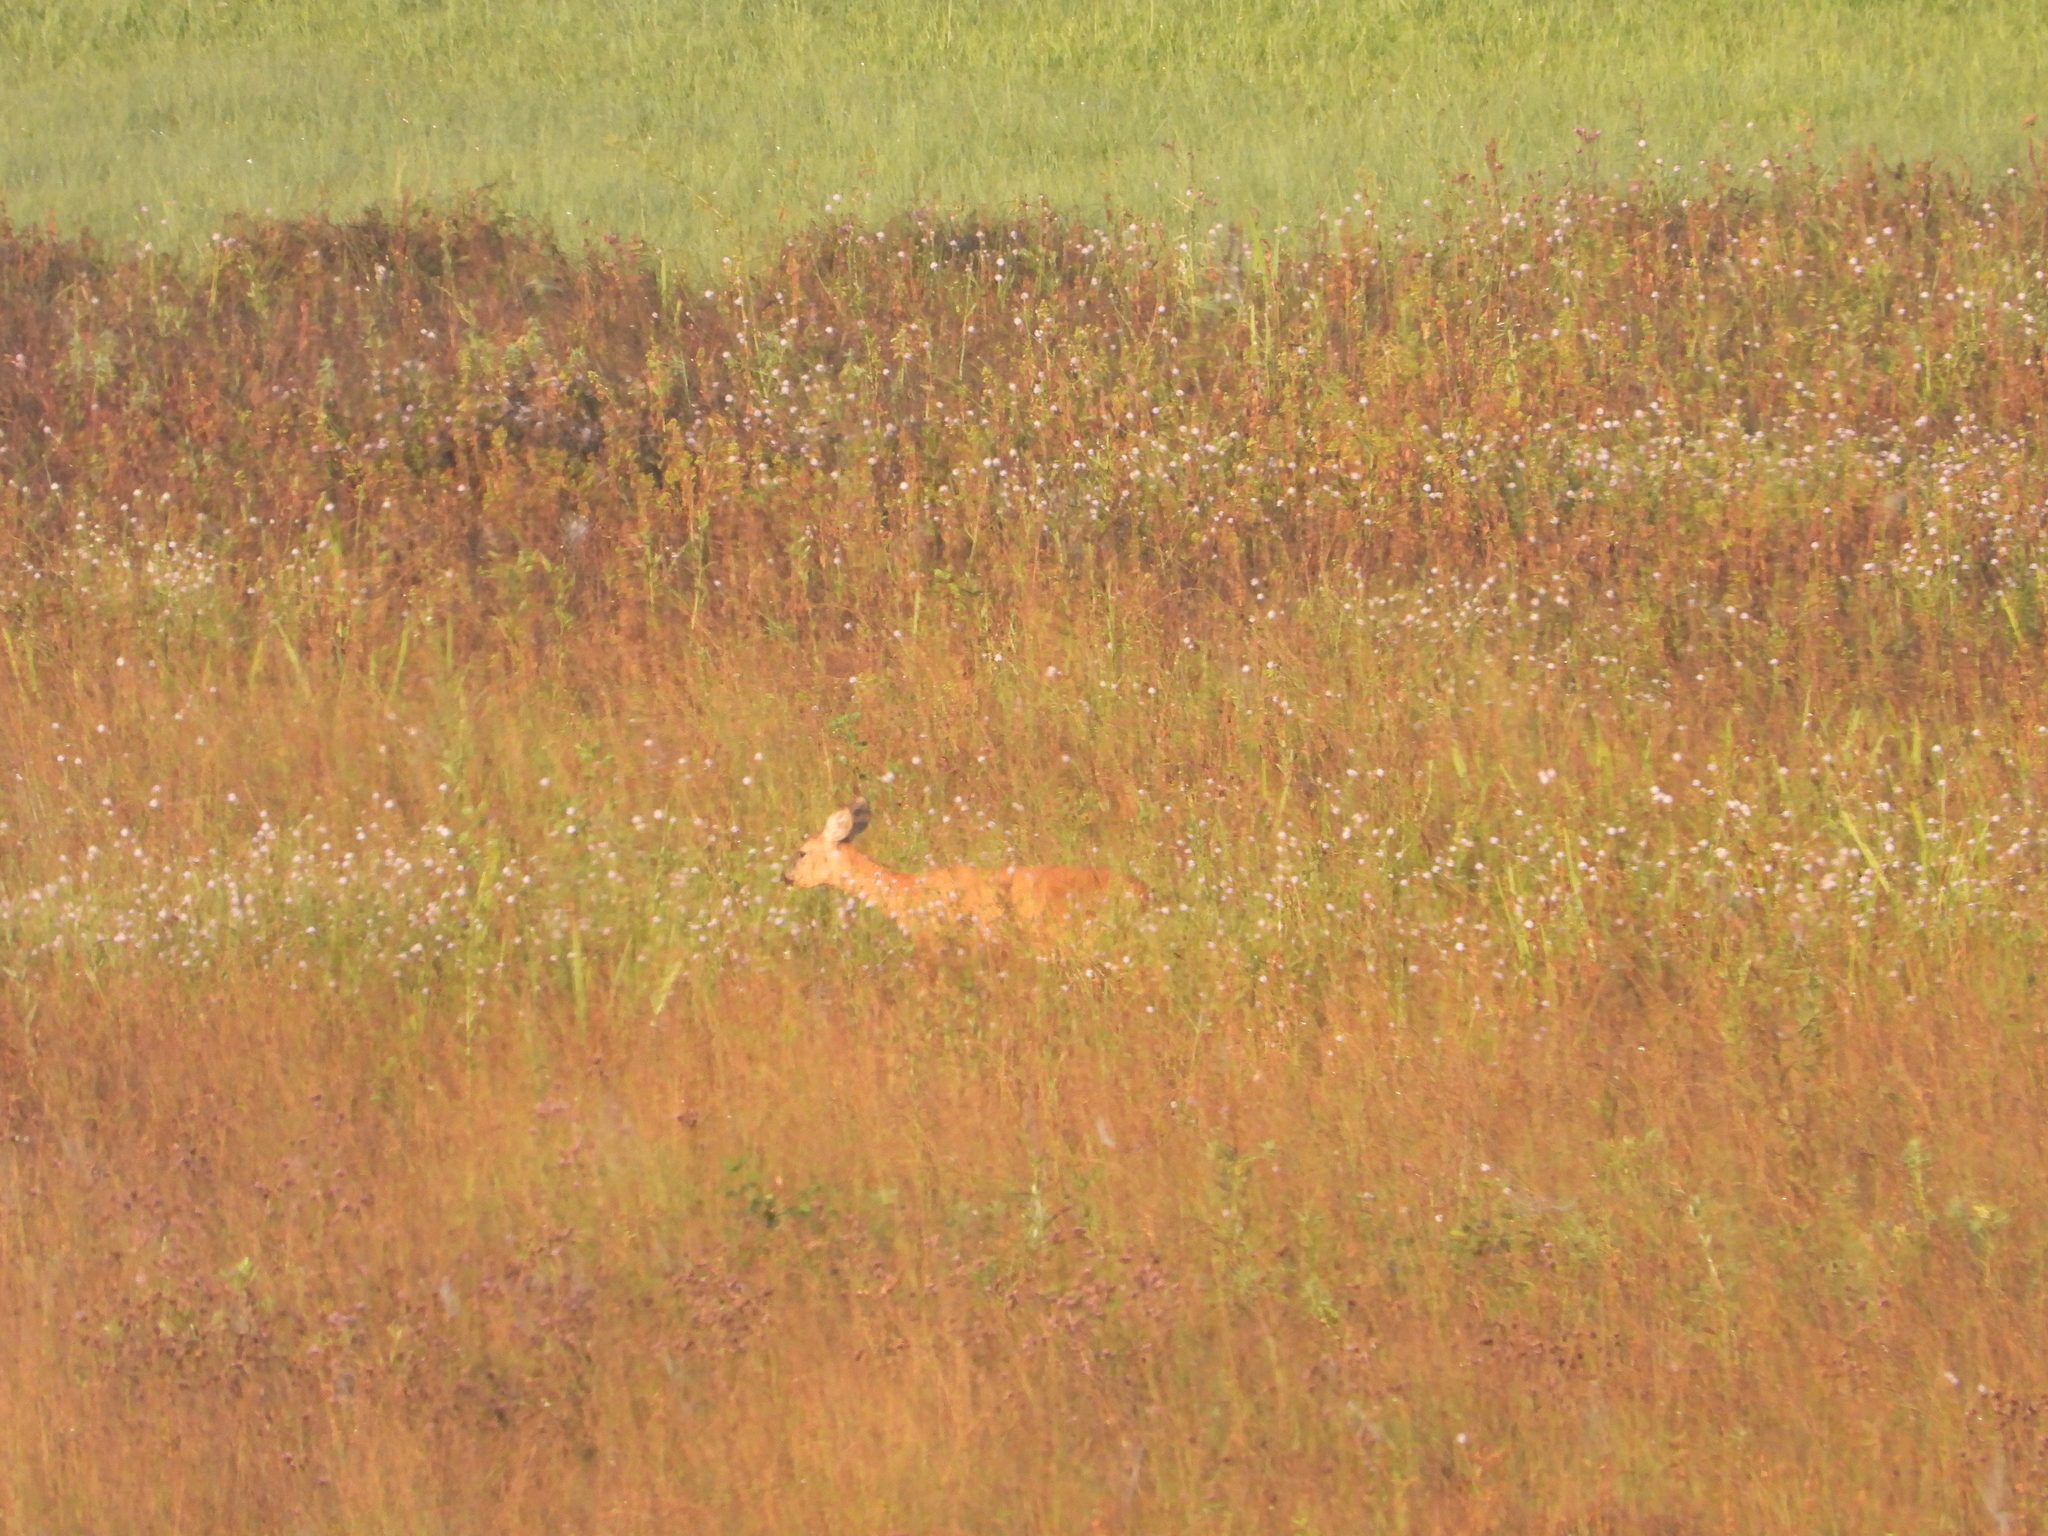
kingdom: Animalia
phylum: Chordata
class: Mammalia
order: Artiodactyla
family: Cervidae
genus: Capreolus
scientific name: Capreolus capreolus
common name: Western roe deer
